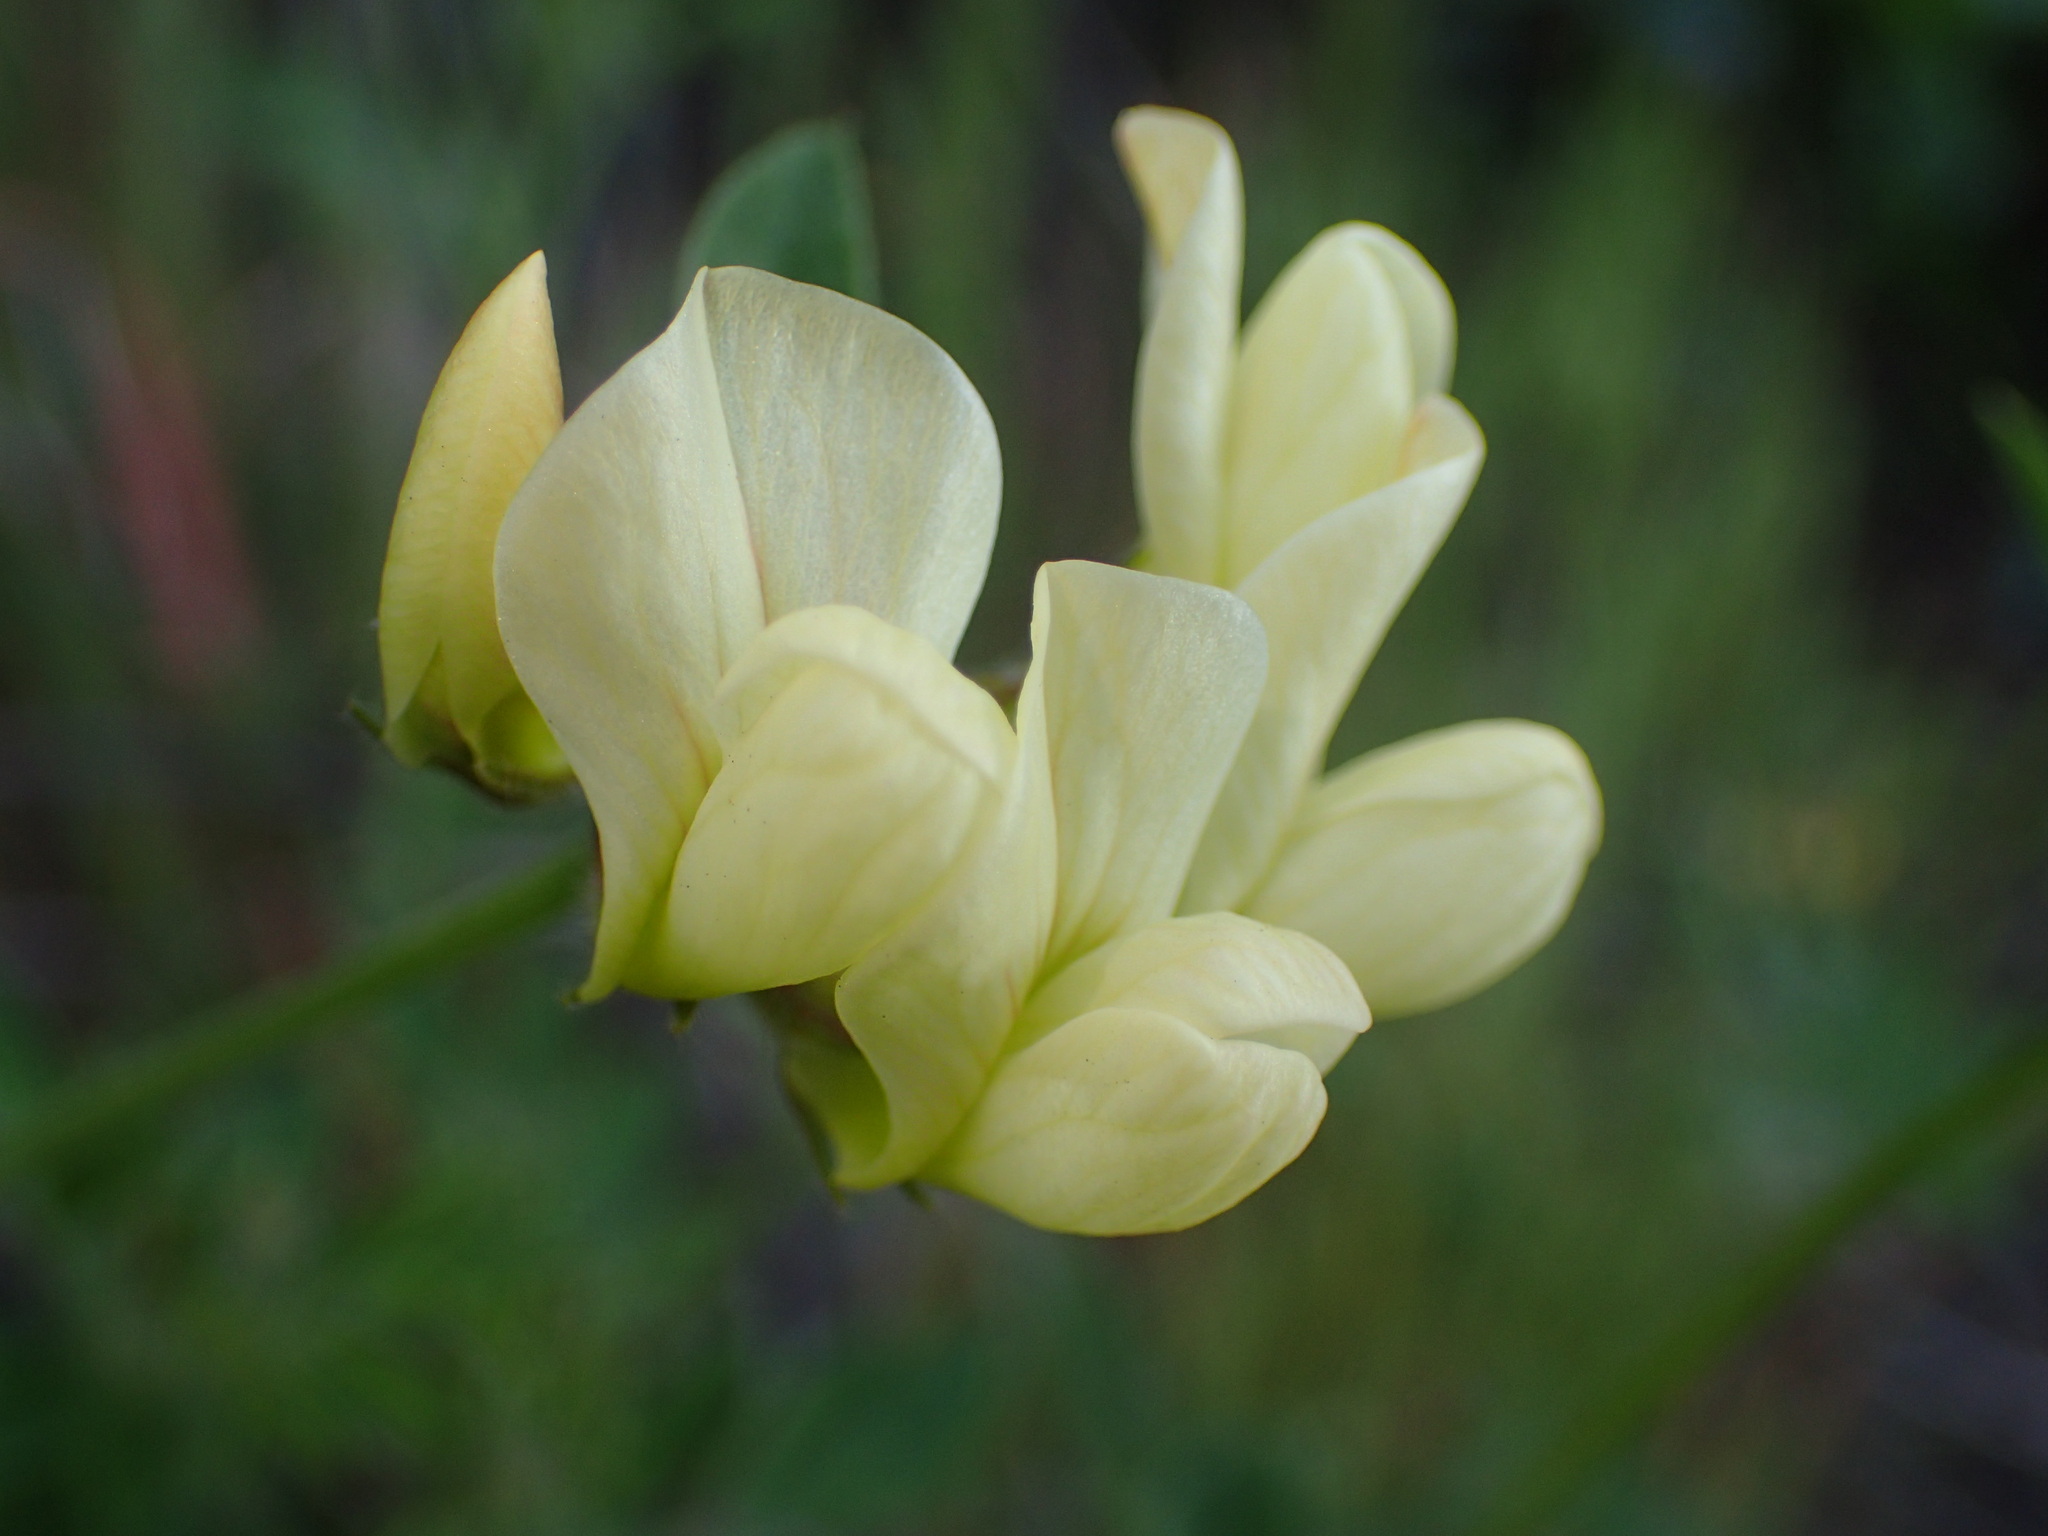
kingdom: Plantae
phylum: Tracheophyta
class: Magnoliopsida
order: Fabales
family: Fabaceae
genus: Acmispon
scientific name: Acmispon grandiflorus
